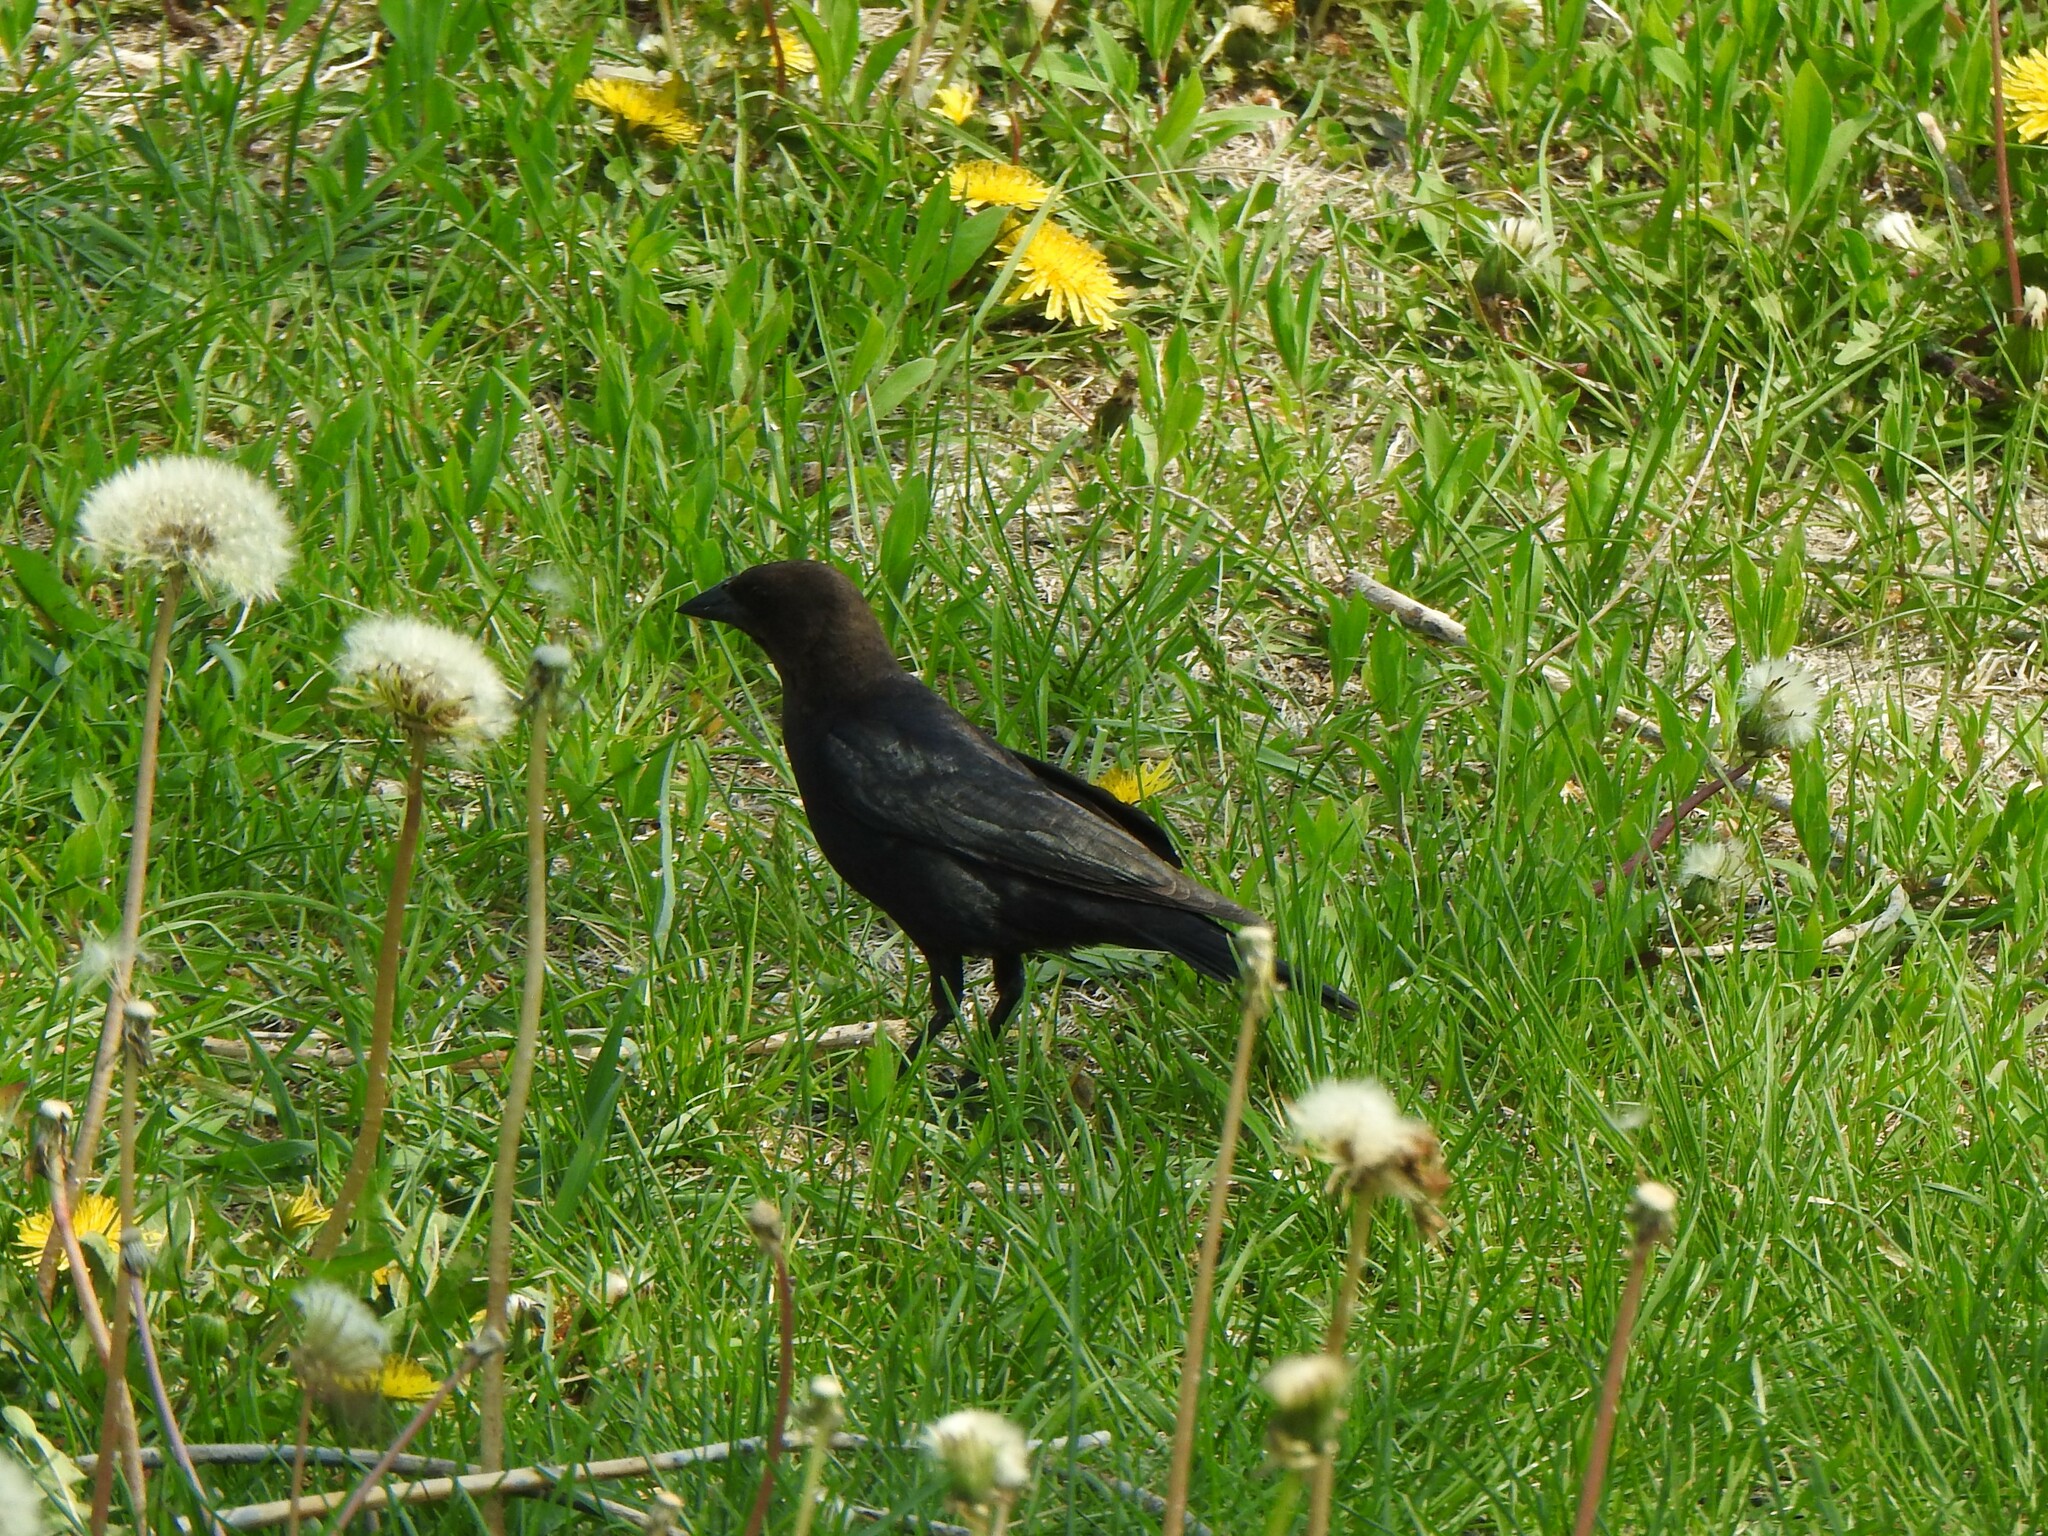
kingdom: Animalia
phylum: Chordata
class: Aves
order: Passeriformes
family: Icteridae
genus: Molothrus
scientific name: Molothrus ater
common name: Brown-headed cowbird
